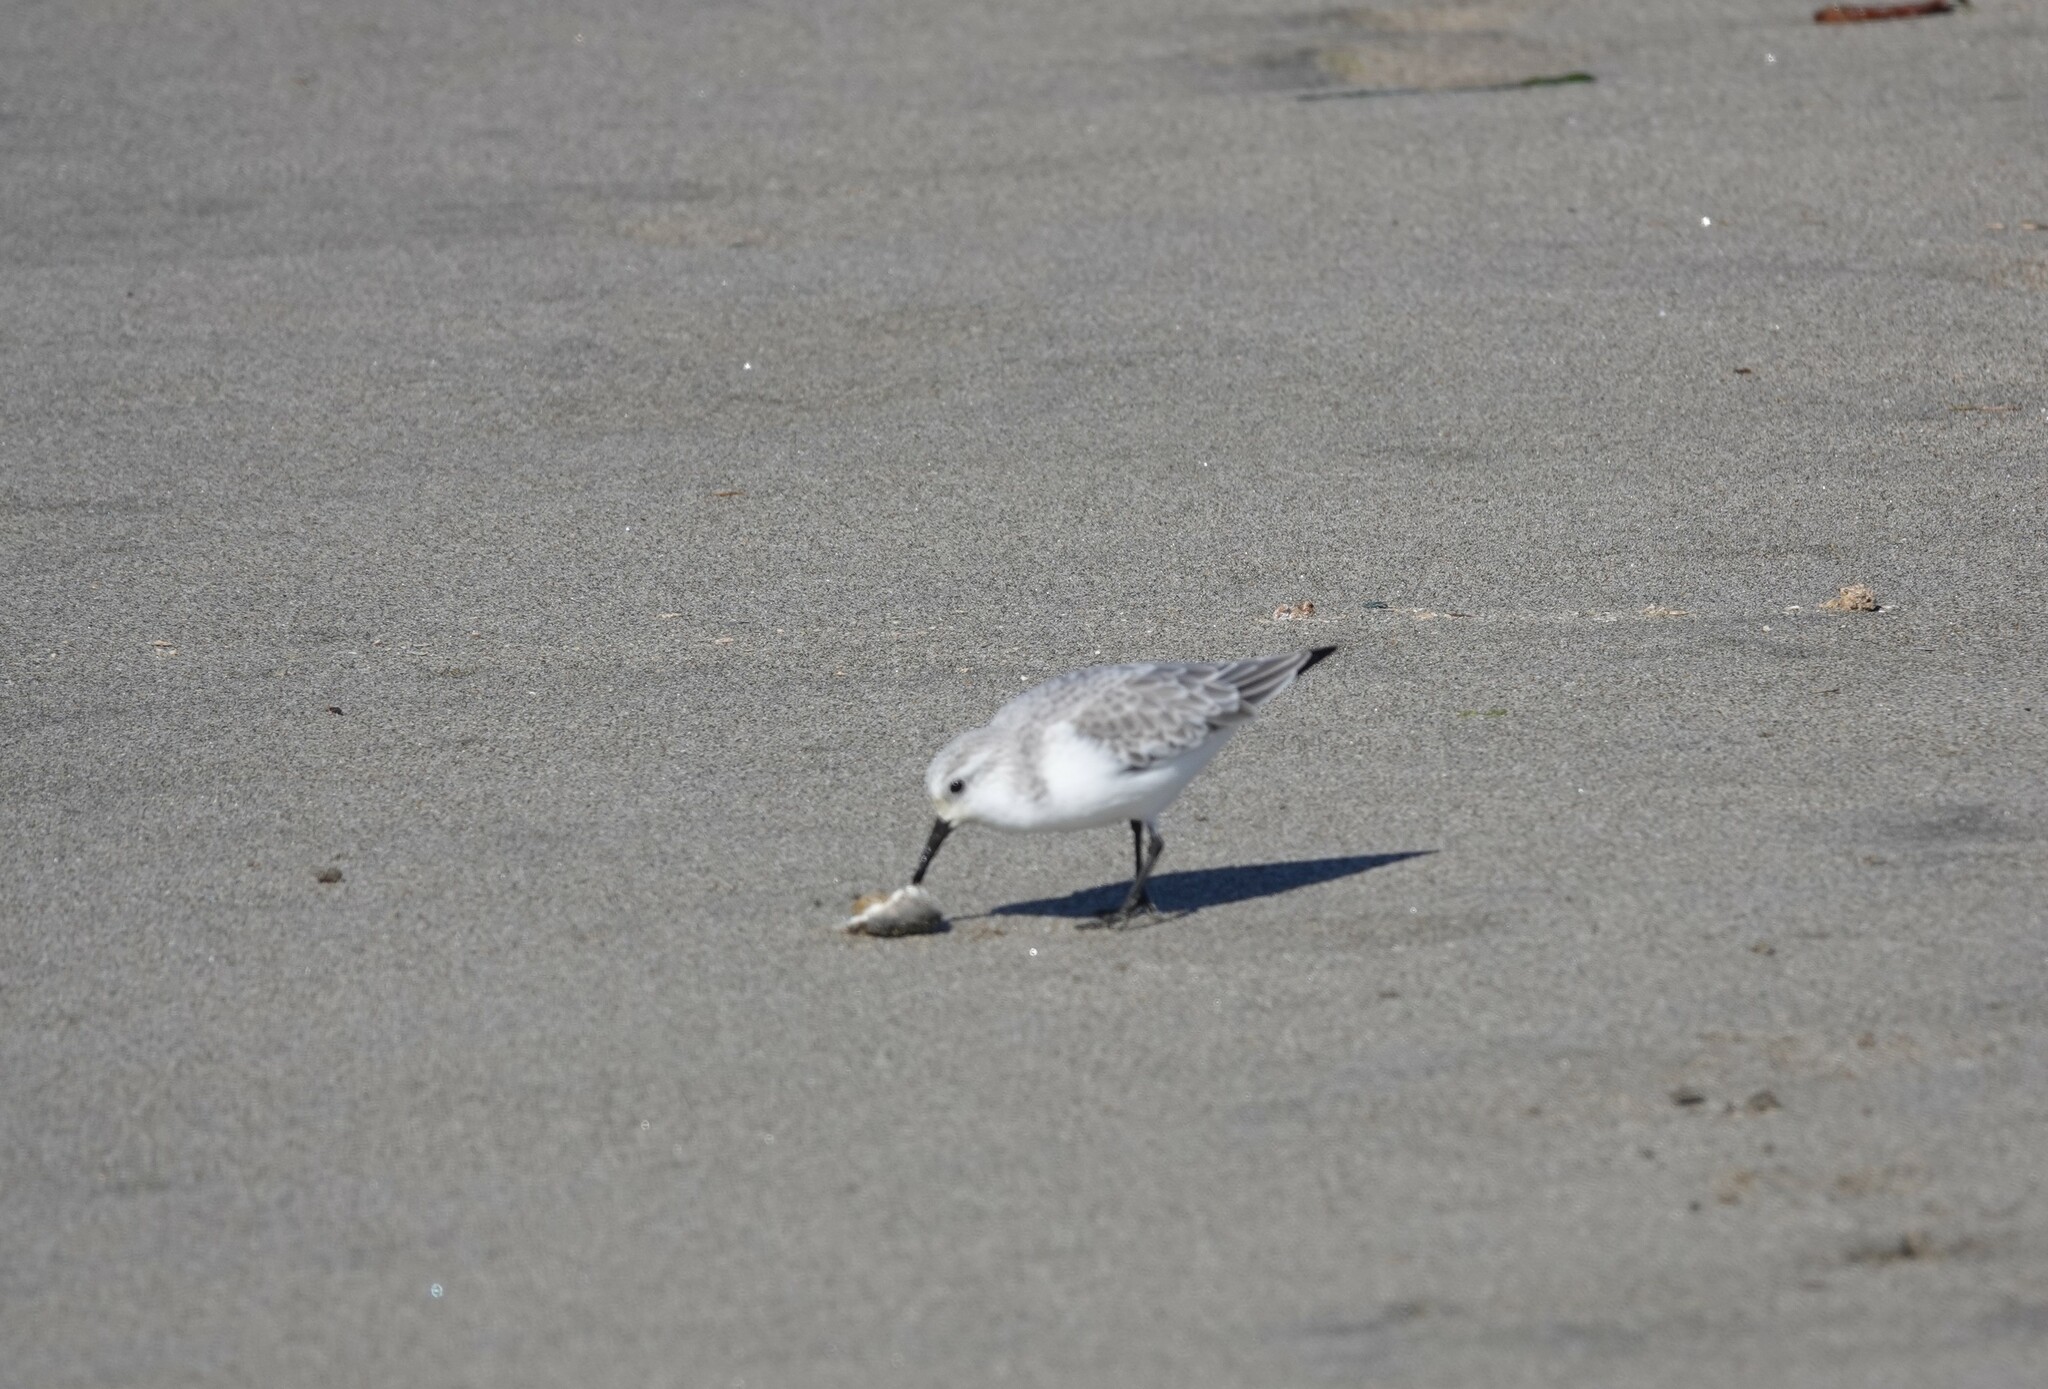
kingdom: Animalia
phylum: Chordata
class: Aves
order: Charadriiformes
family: Scolopacidae
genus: Calidris
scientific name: Calidris alba
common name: Sanderling
